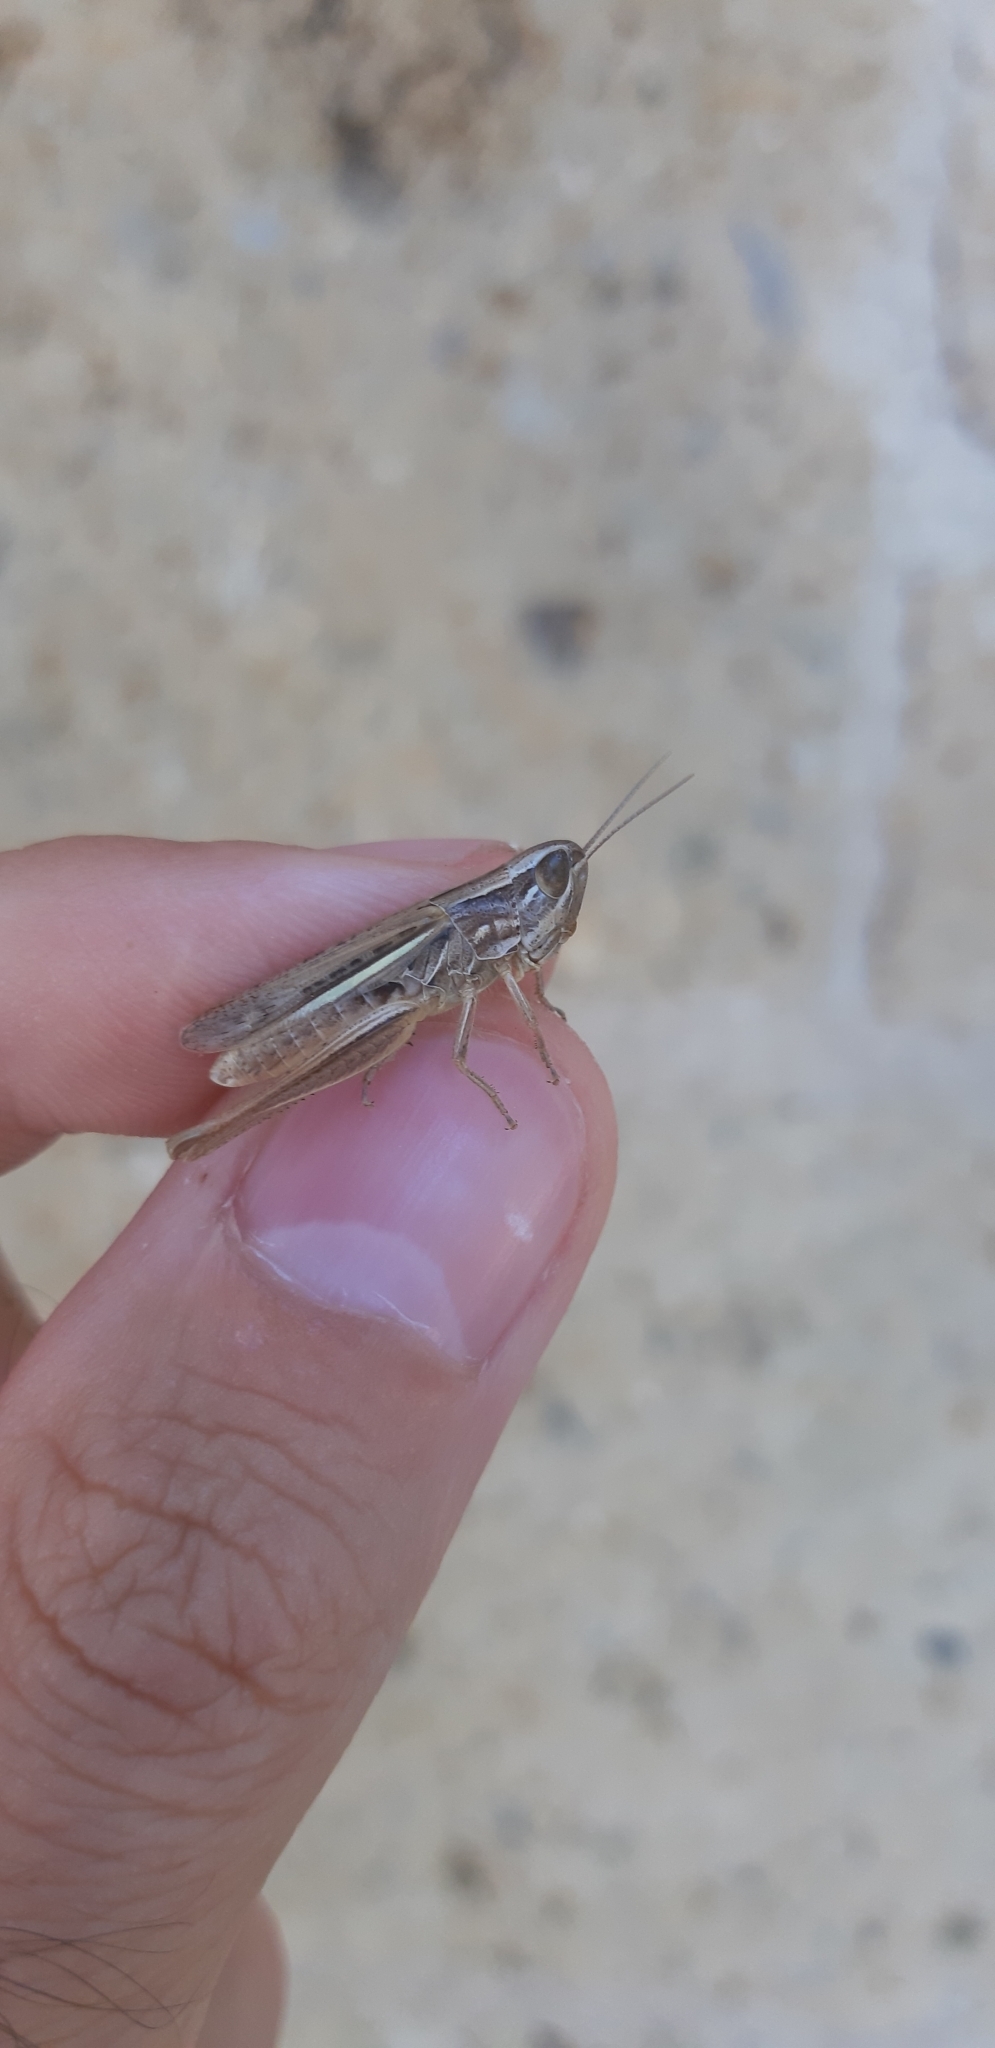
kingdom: Animalia
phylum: Arthropoda
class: Insecta
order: Orthoptera
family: Acrididae
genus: Euchorthippus
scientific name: Euchorthippus declivus
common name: Common straw grasshopper
